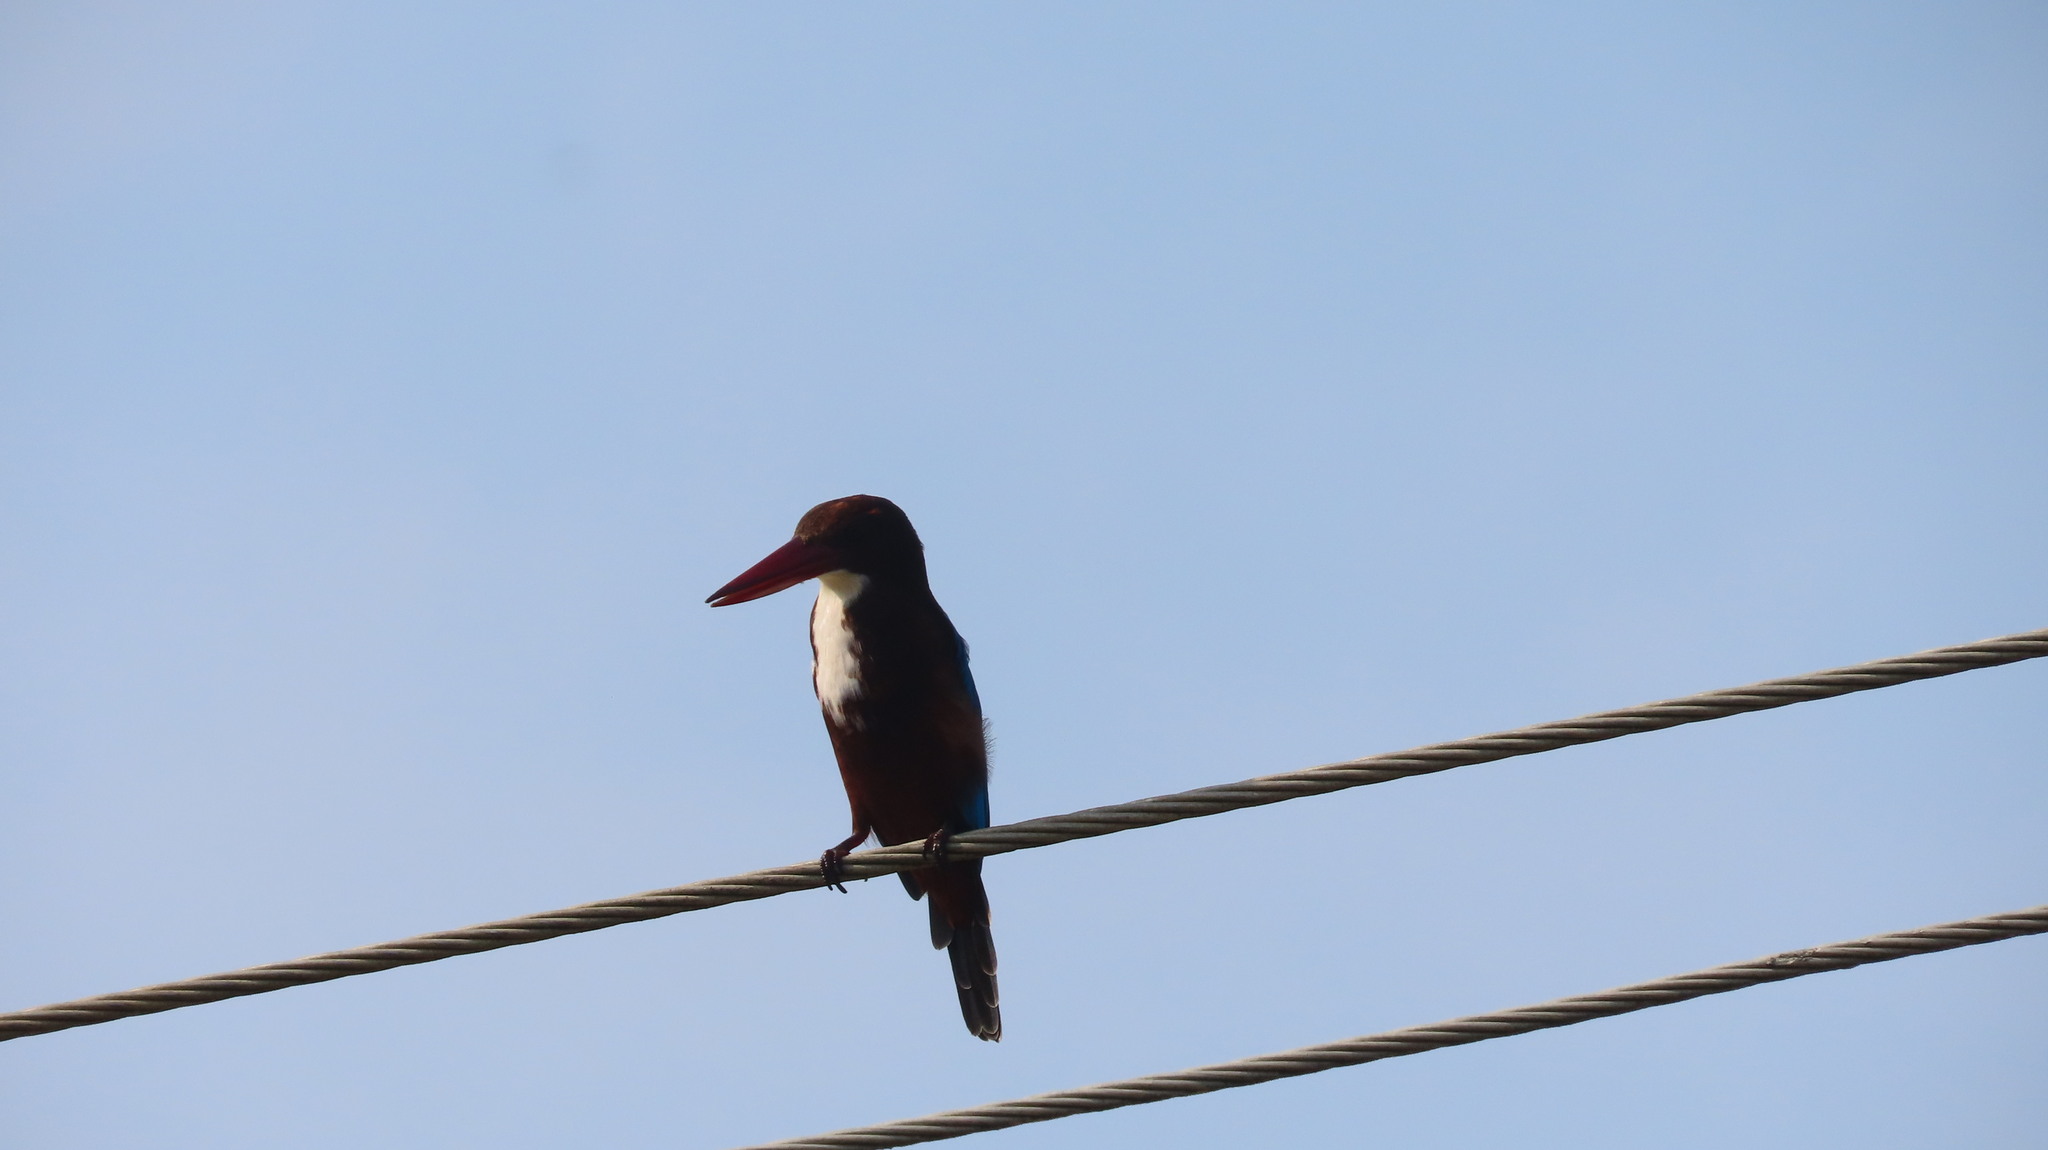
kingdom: Animalia
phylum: Chordata
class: Aves
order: Coraciiformes
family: Alcedinidae
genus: Halcyon
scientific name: Halcyon smyrnensis
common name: White-throated kingfisher
